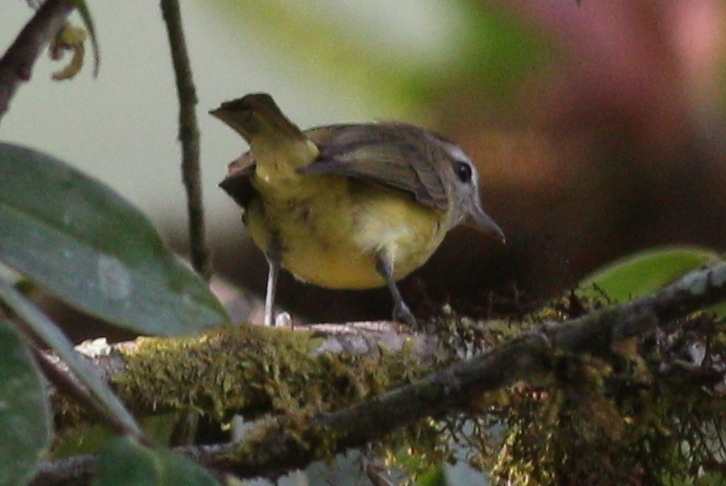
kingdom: Animalia
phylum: Chordata
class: Aves
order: Passeriformes
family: Vireonidae
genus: Vireo
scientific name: Vireo leucophrys
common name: Brown-capped vireo
